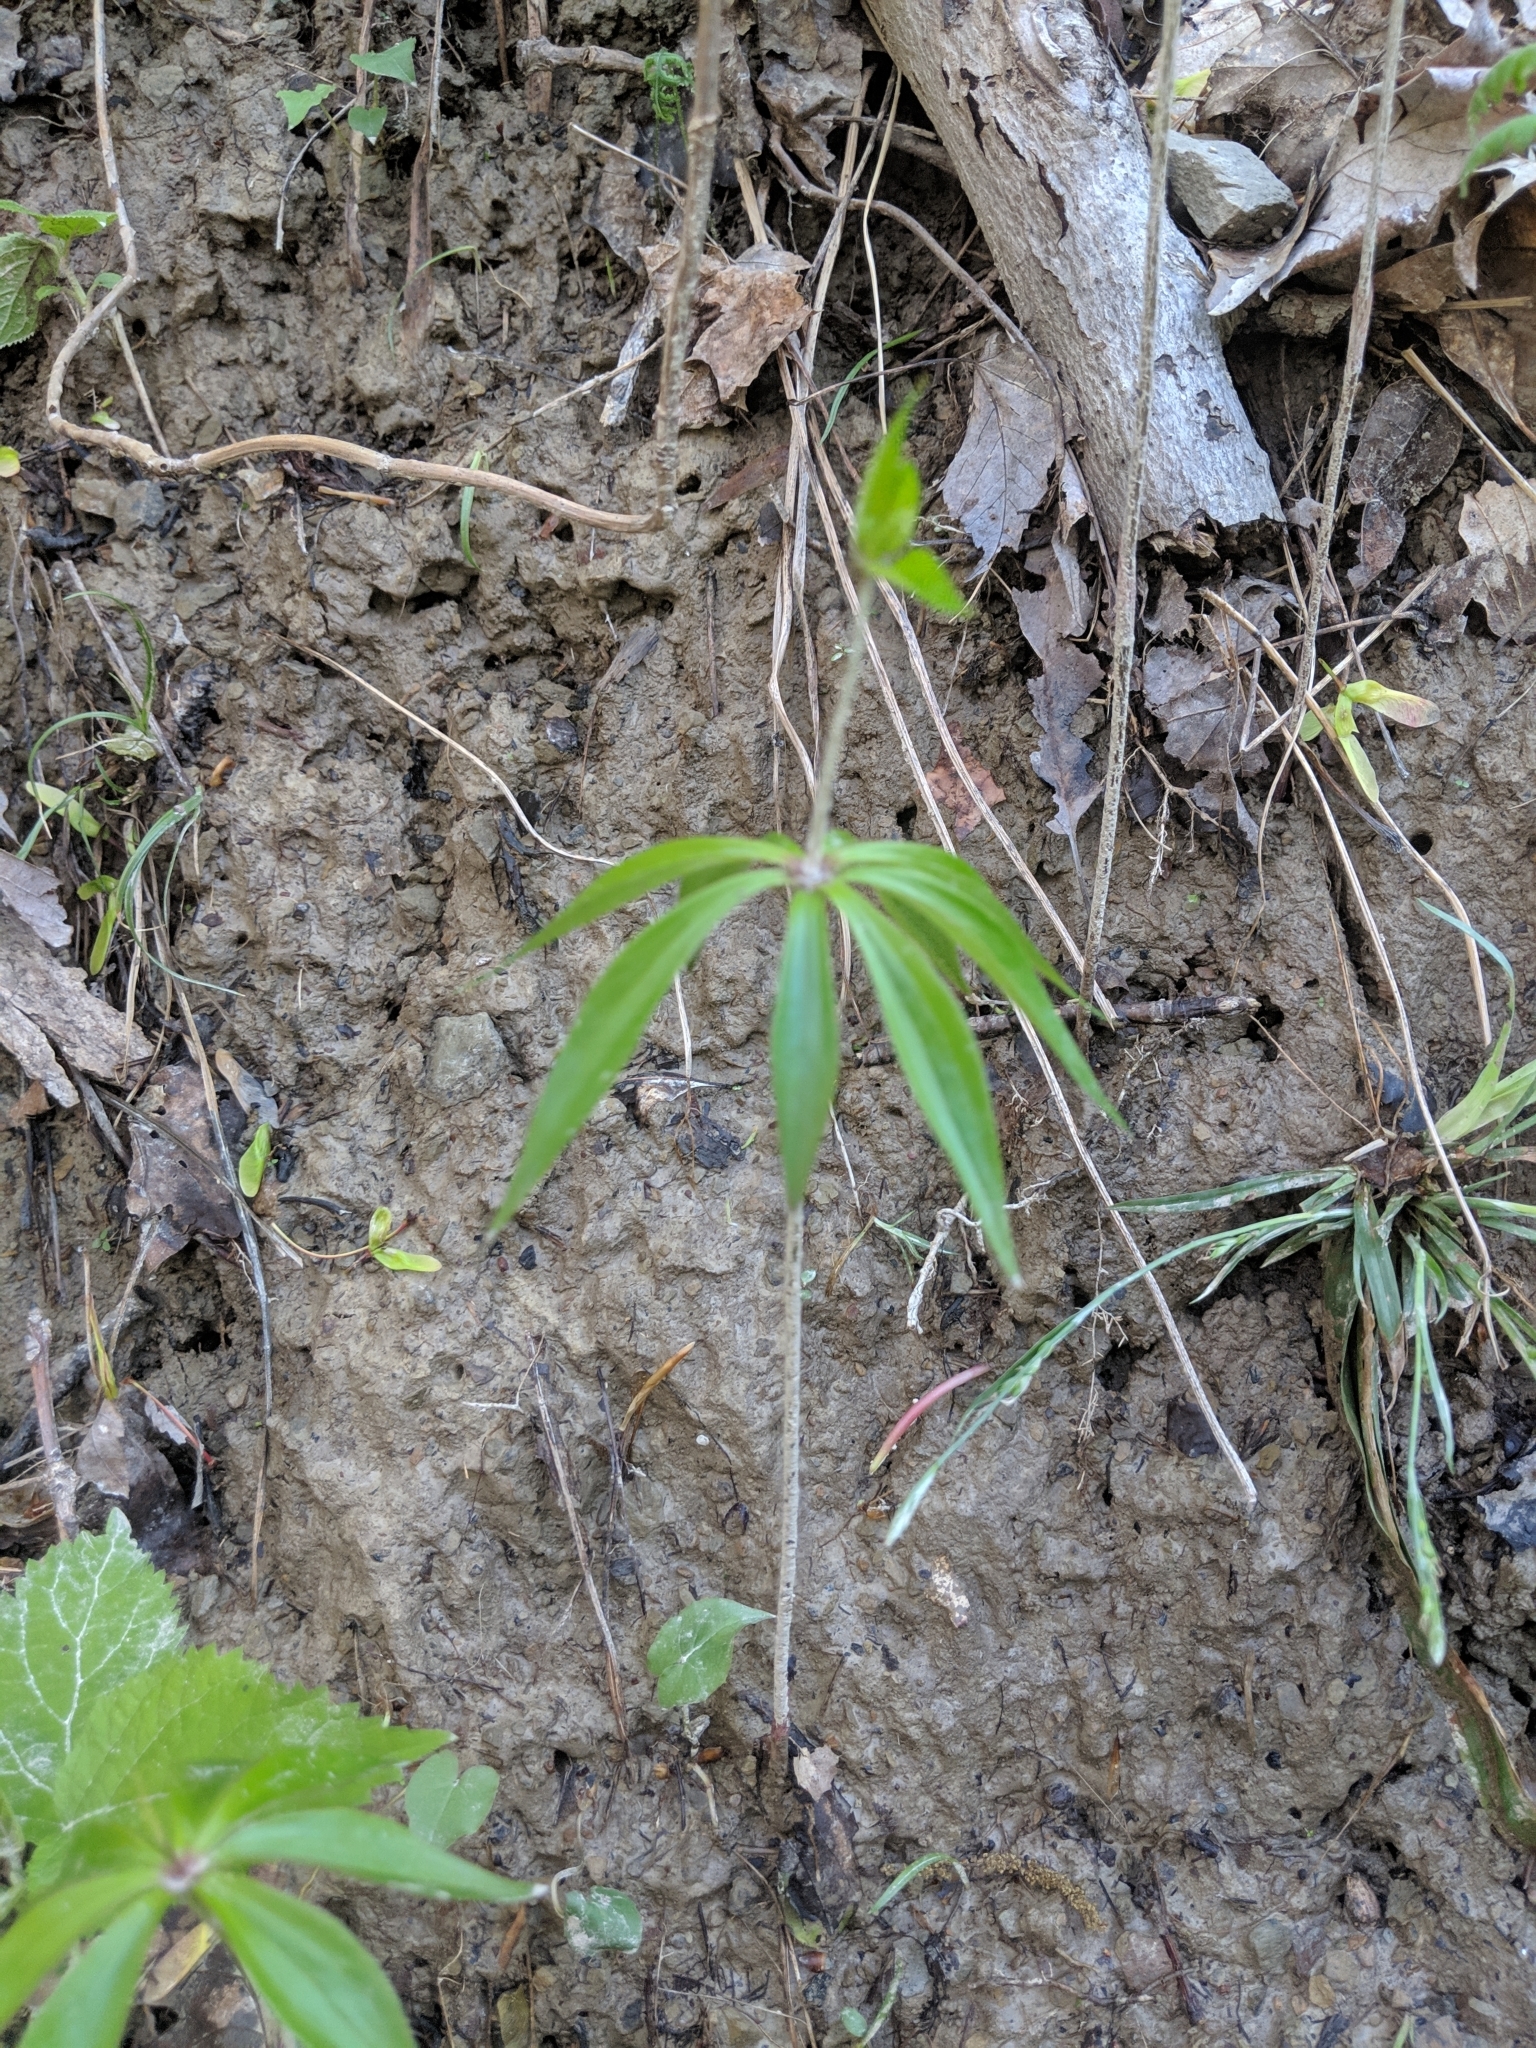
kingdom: Plantae
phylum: Tracheophyta
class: Liliopsida
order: Liliales
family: Liliaceae
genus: Medeola
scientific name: Medeola virginiana
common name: Indian cucumber-root
